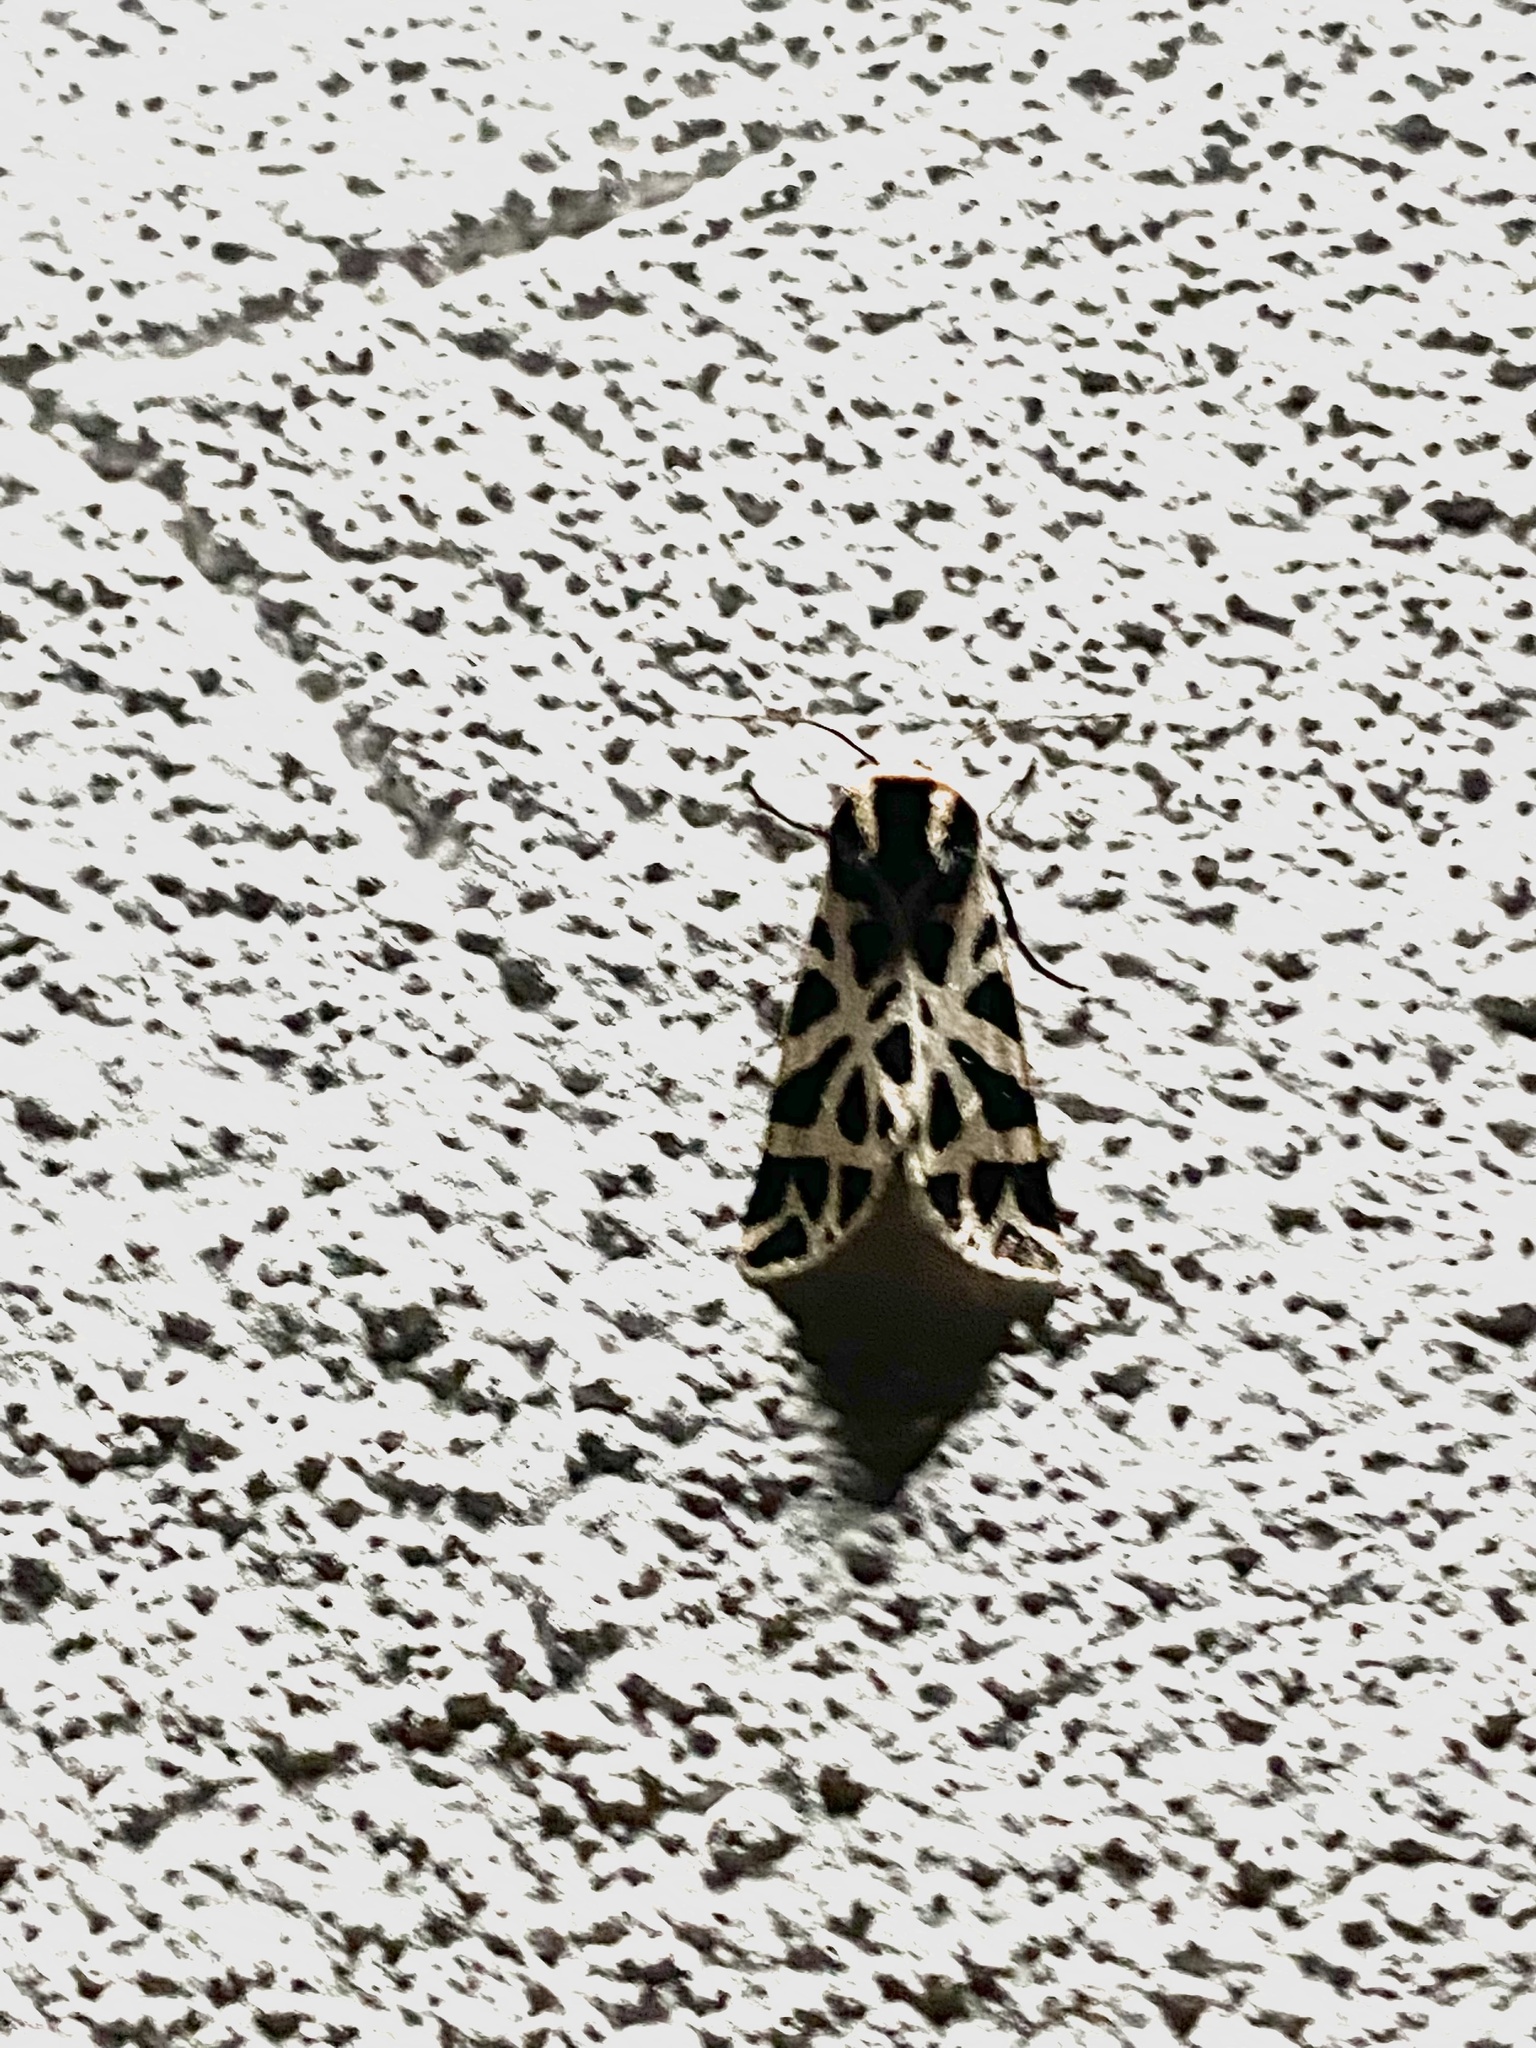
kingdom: Animalia
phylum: Arthropoda
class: Insecta
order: Lepidoptera
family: Erebidae
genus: Cymbalophora
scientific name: Cymbalophora pudica
